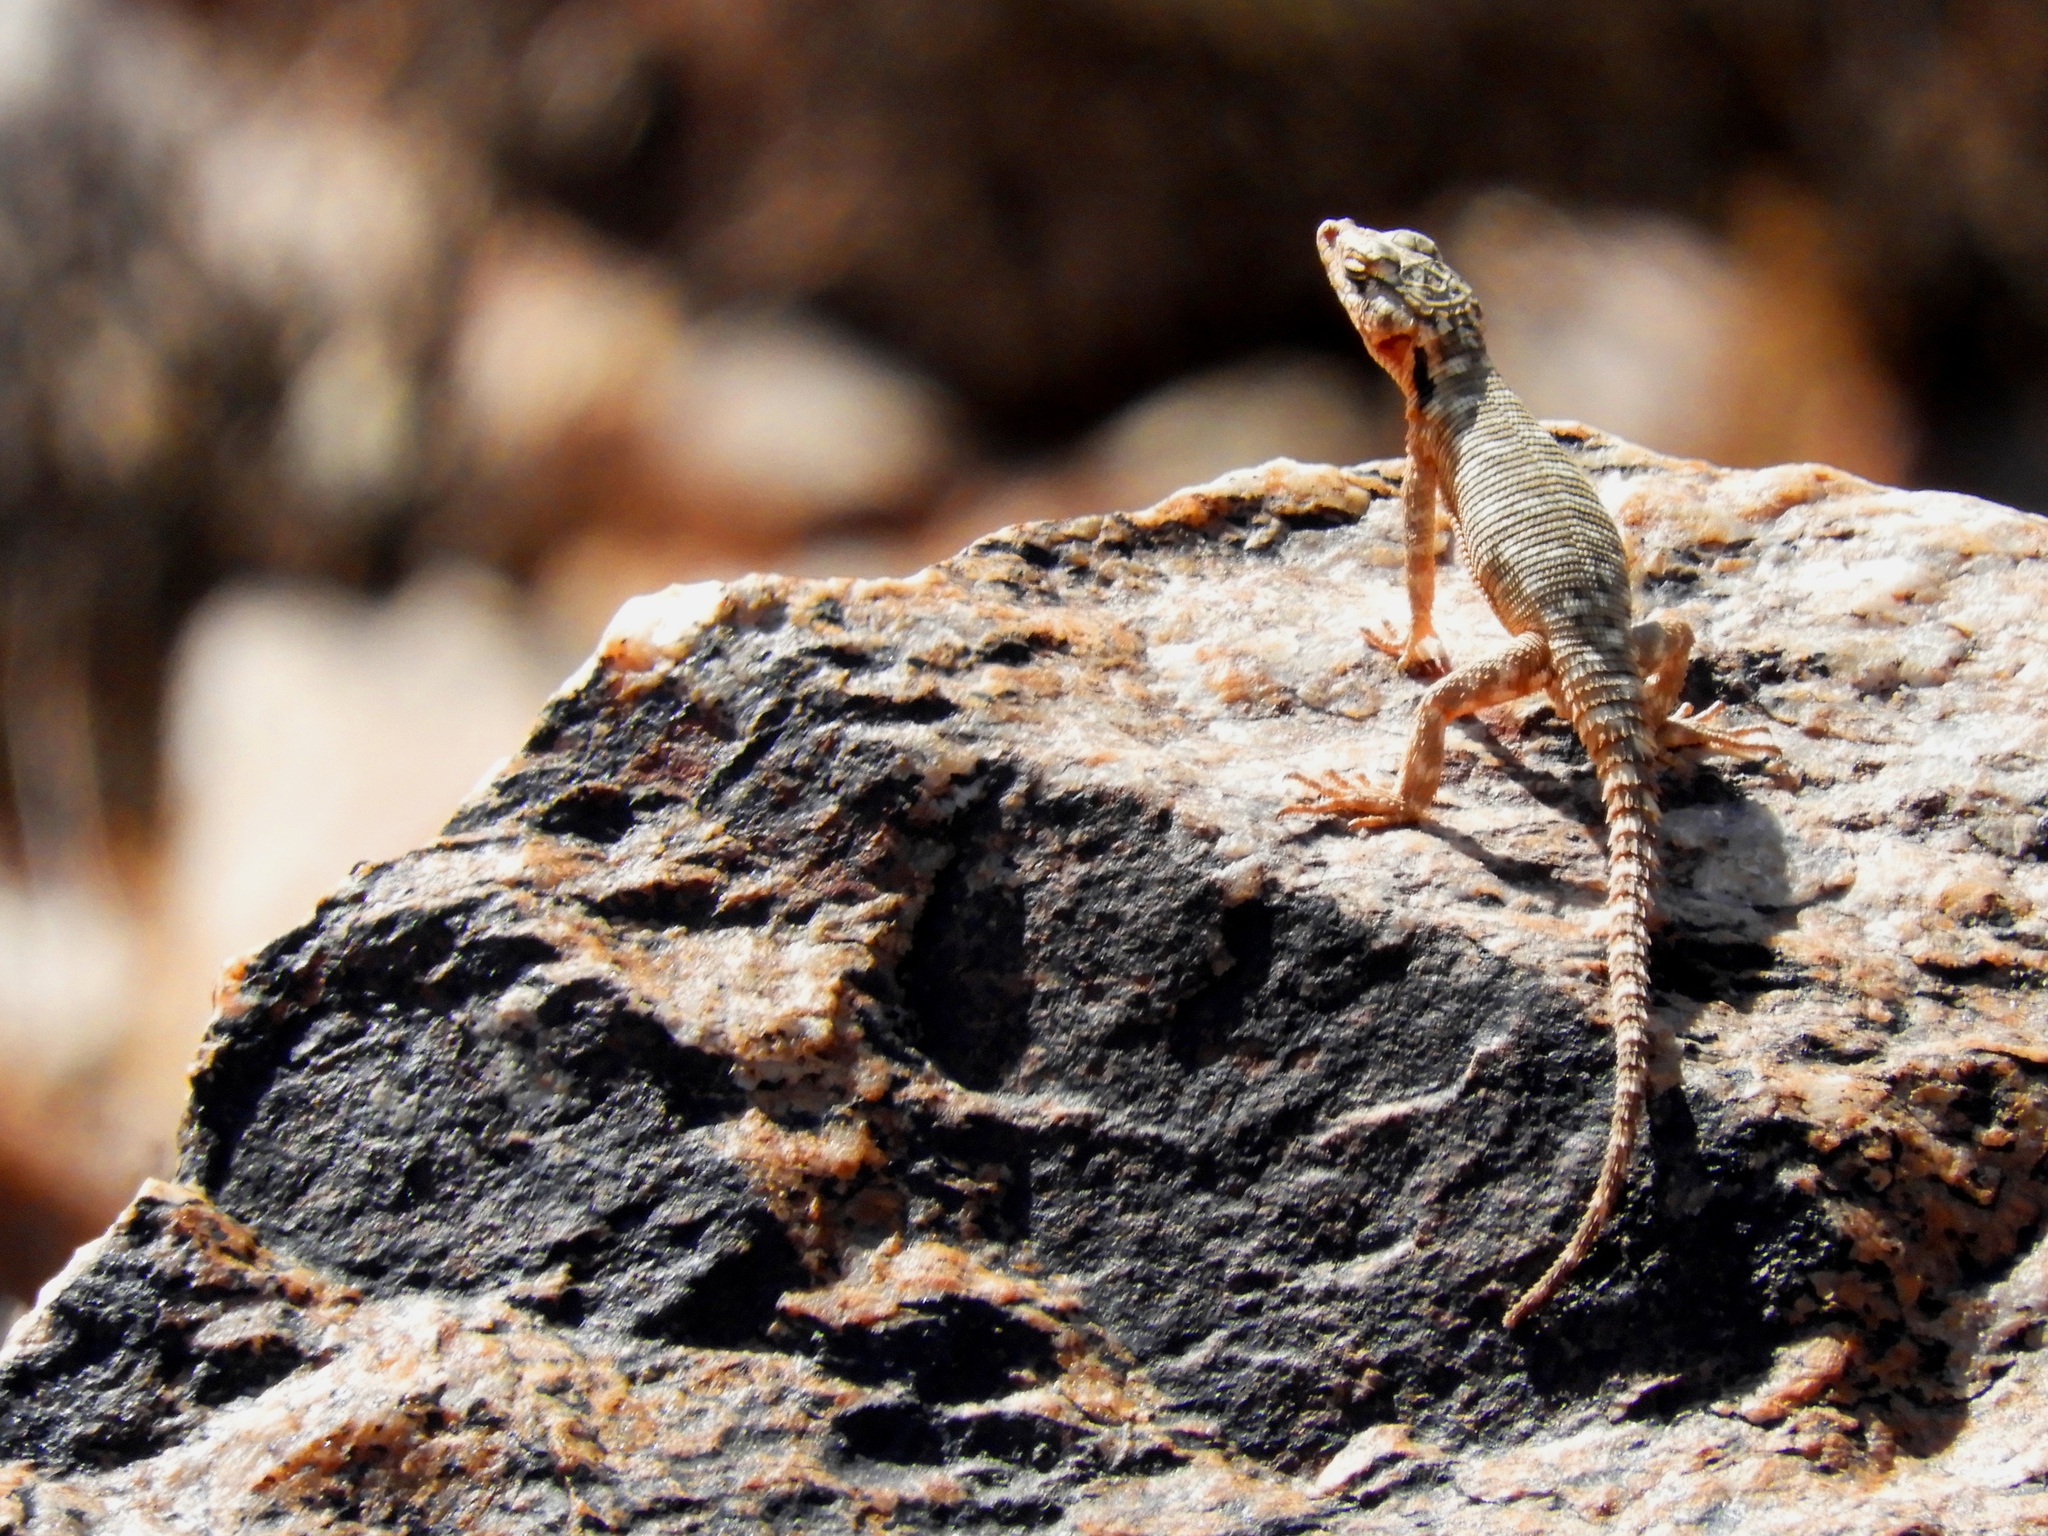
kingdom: Animalia
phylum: Chordata
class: Squamata
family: Cordylidae
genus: Karusasaurus
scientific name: Karusasaurus polyzonus
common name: Karoo girdled lizard
